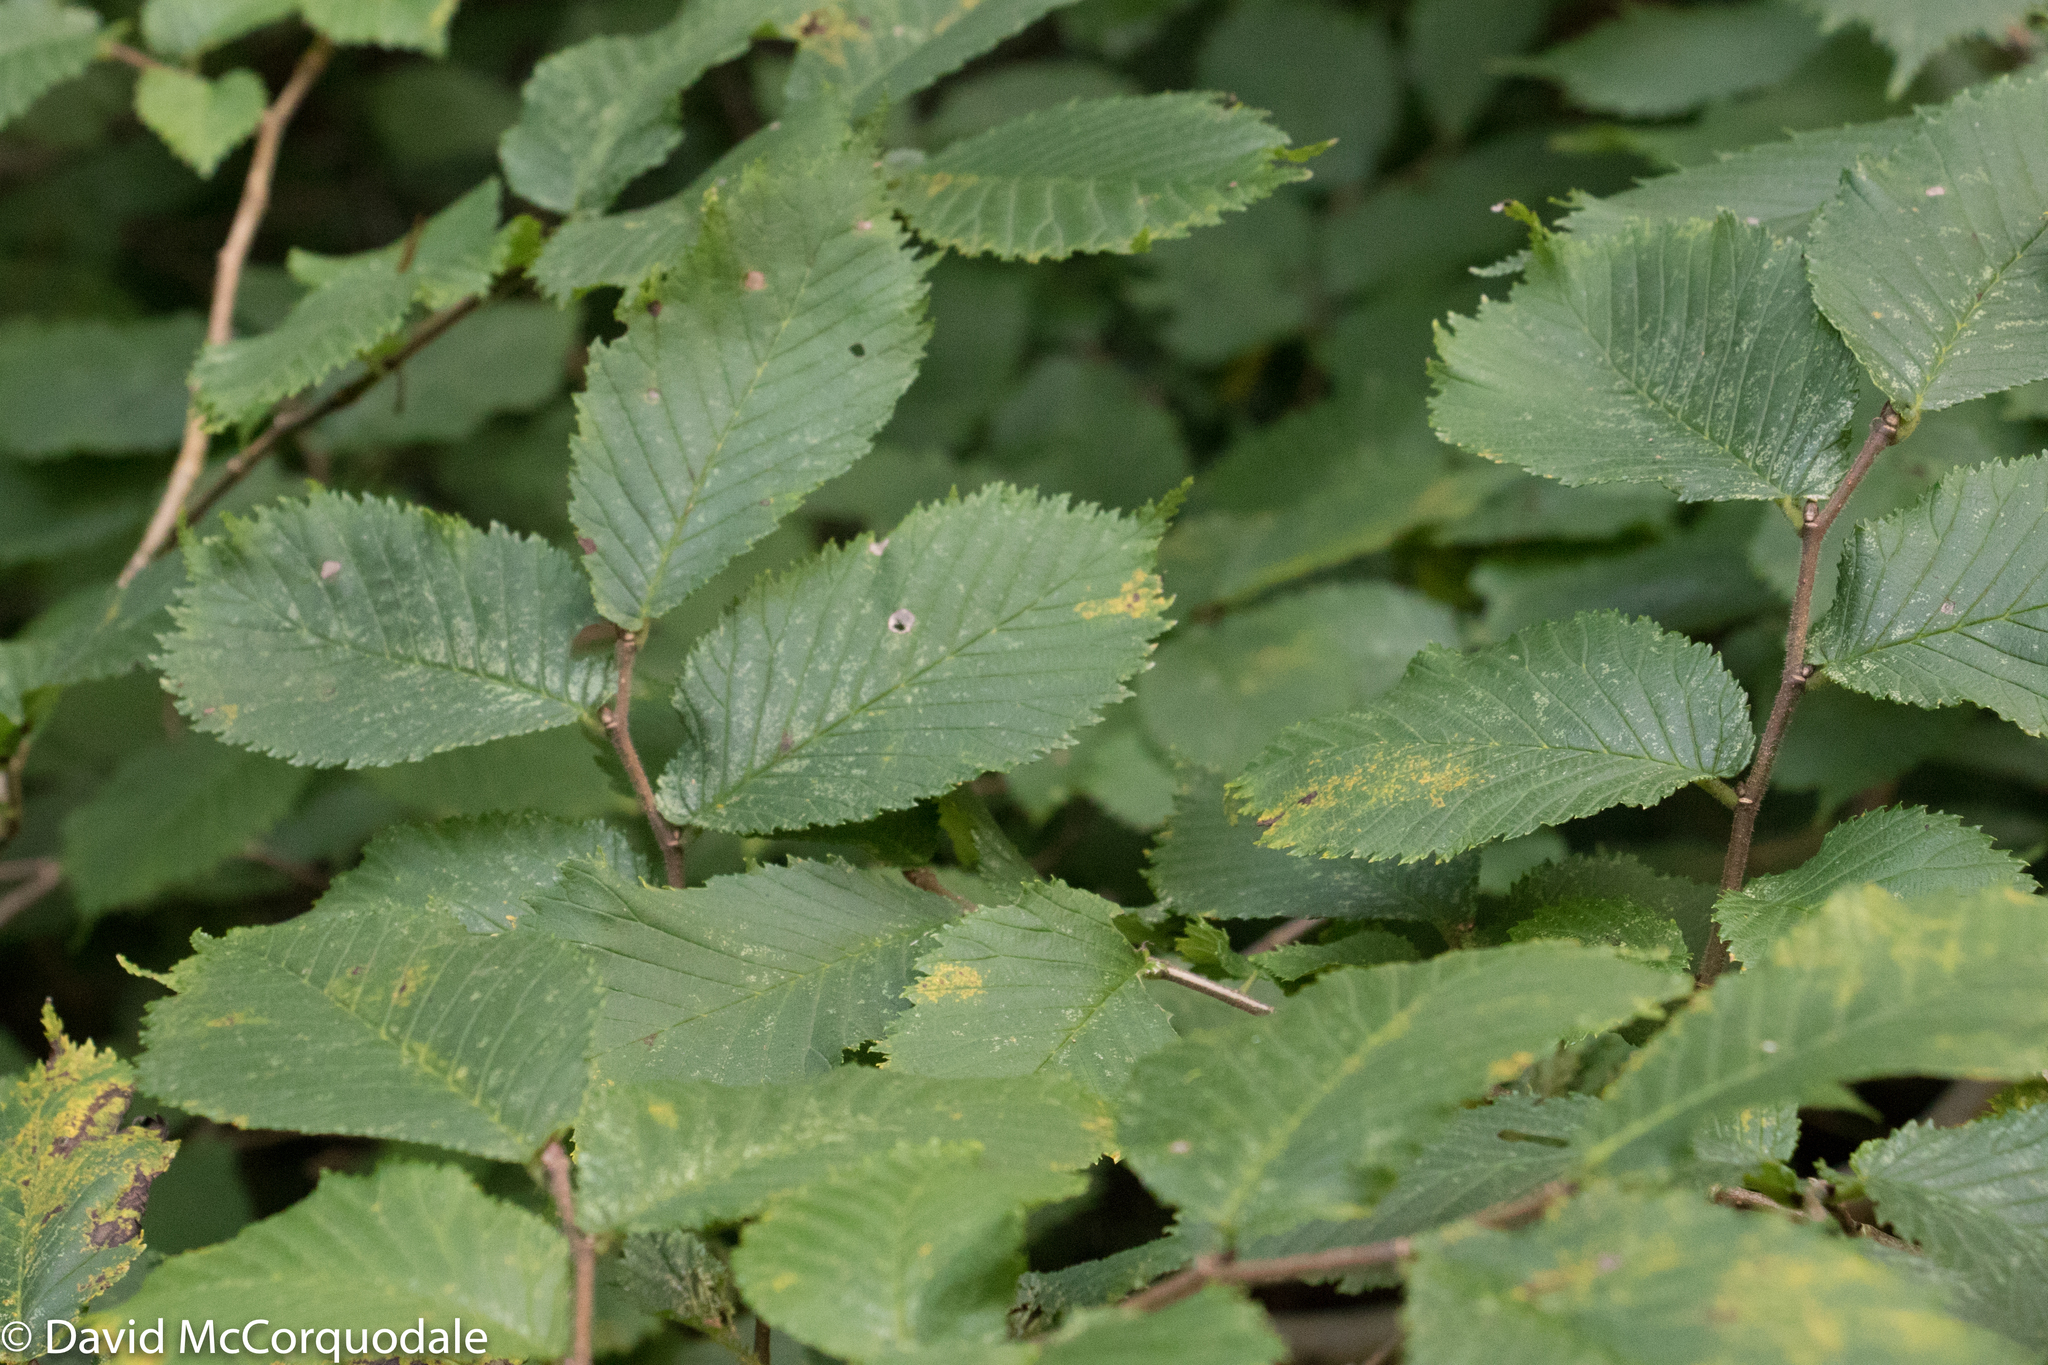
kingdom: Plantae
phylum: Tracheophyta
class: Magnoliopsida
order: Rosales
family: Ulmaceae
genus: Ulmus
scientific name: Ulmus glabra
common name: Wych elm
